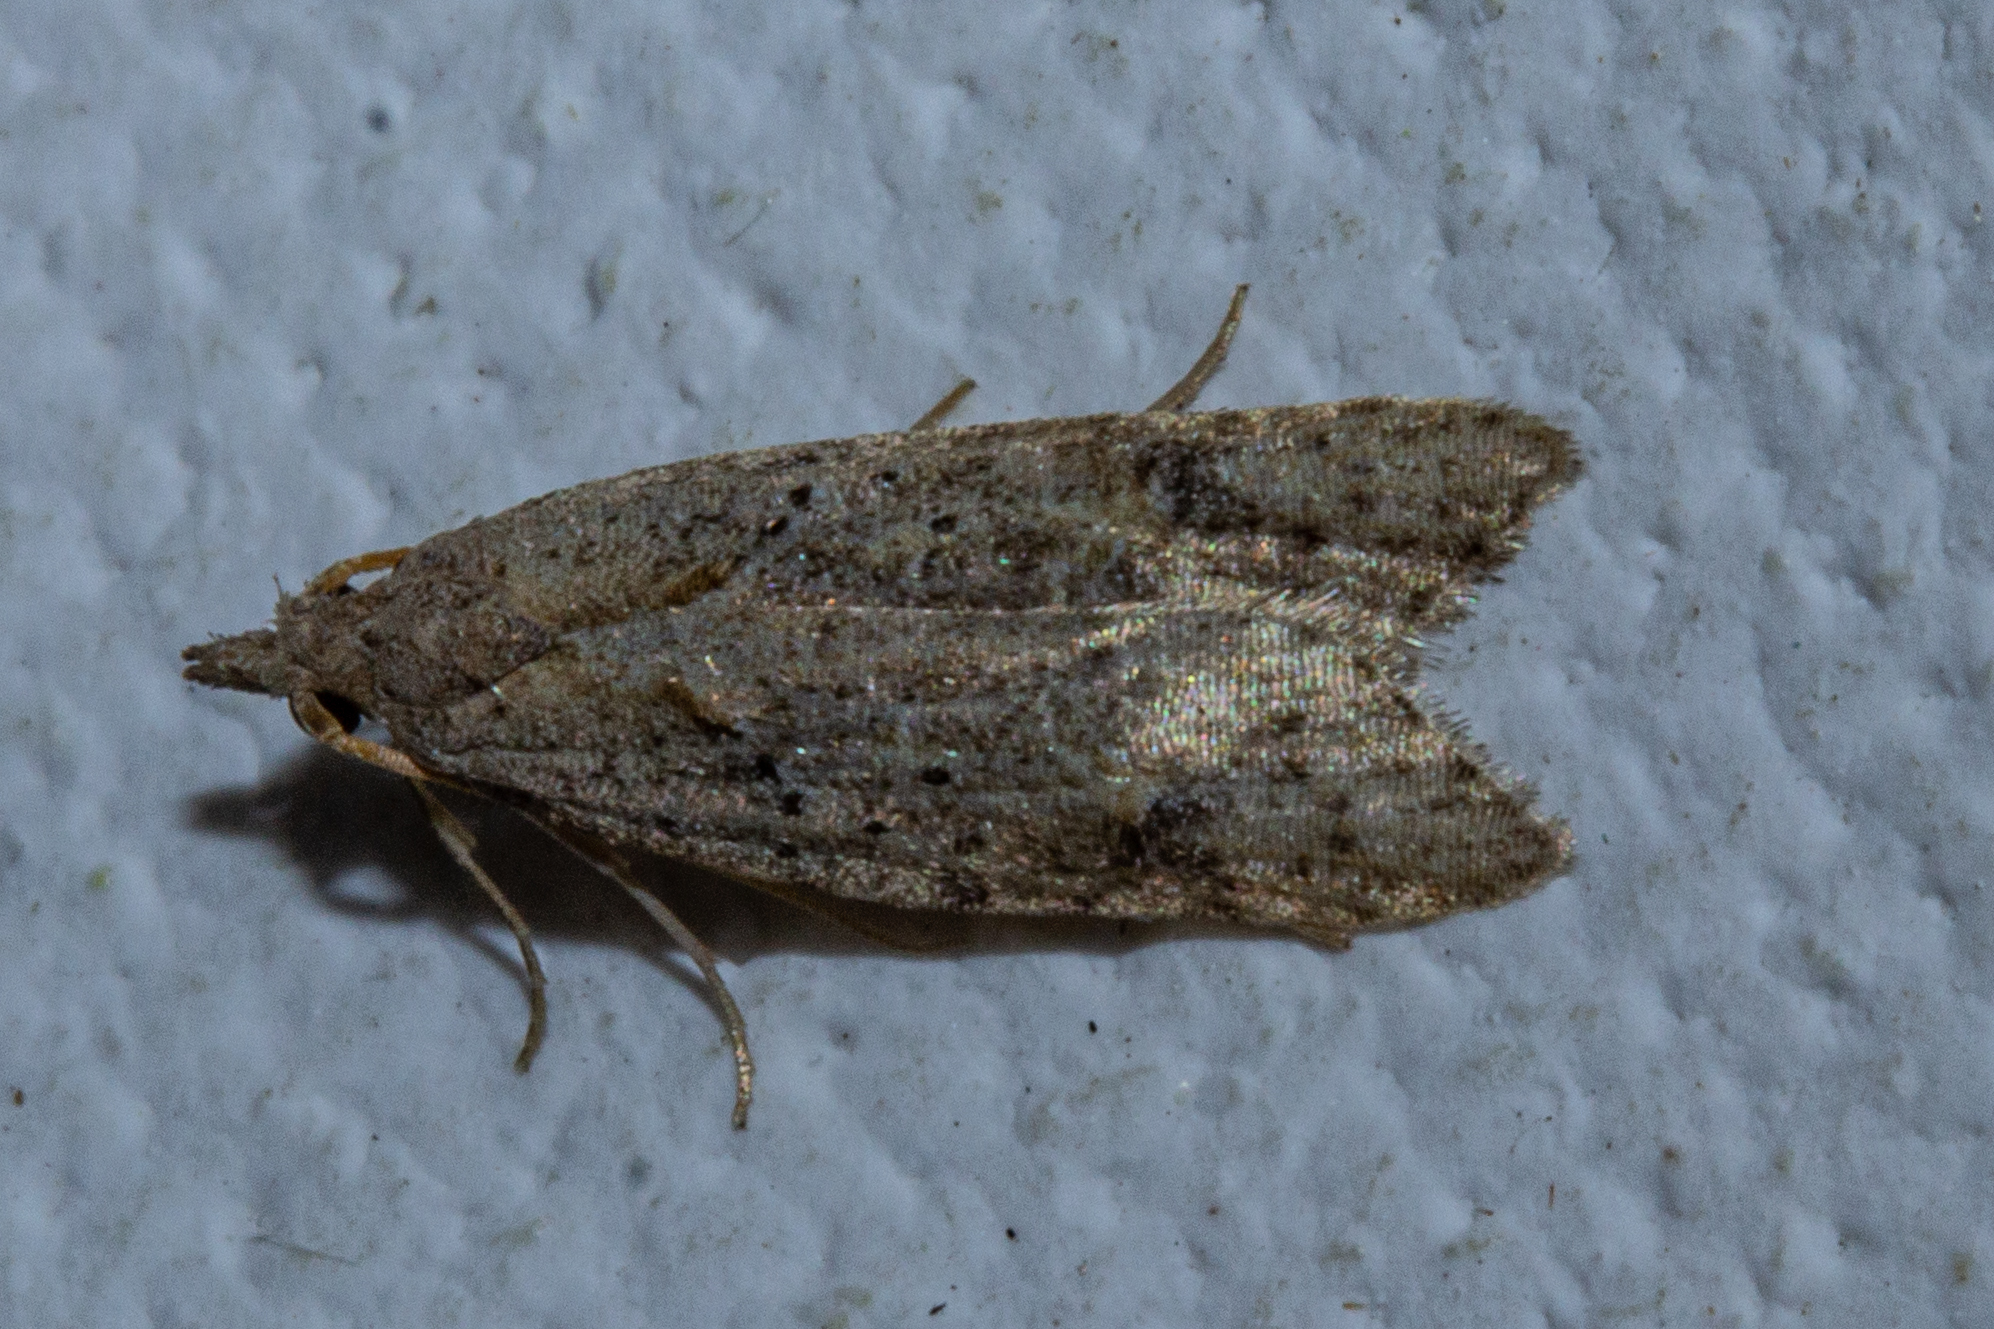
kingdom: Animalia
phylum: Arthropoda
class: Insecta
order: Lepidoptera
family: Carposinidae
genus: Carposina
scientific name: Carposina rubophaga
